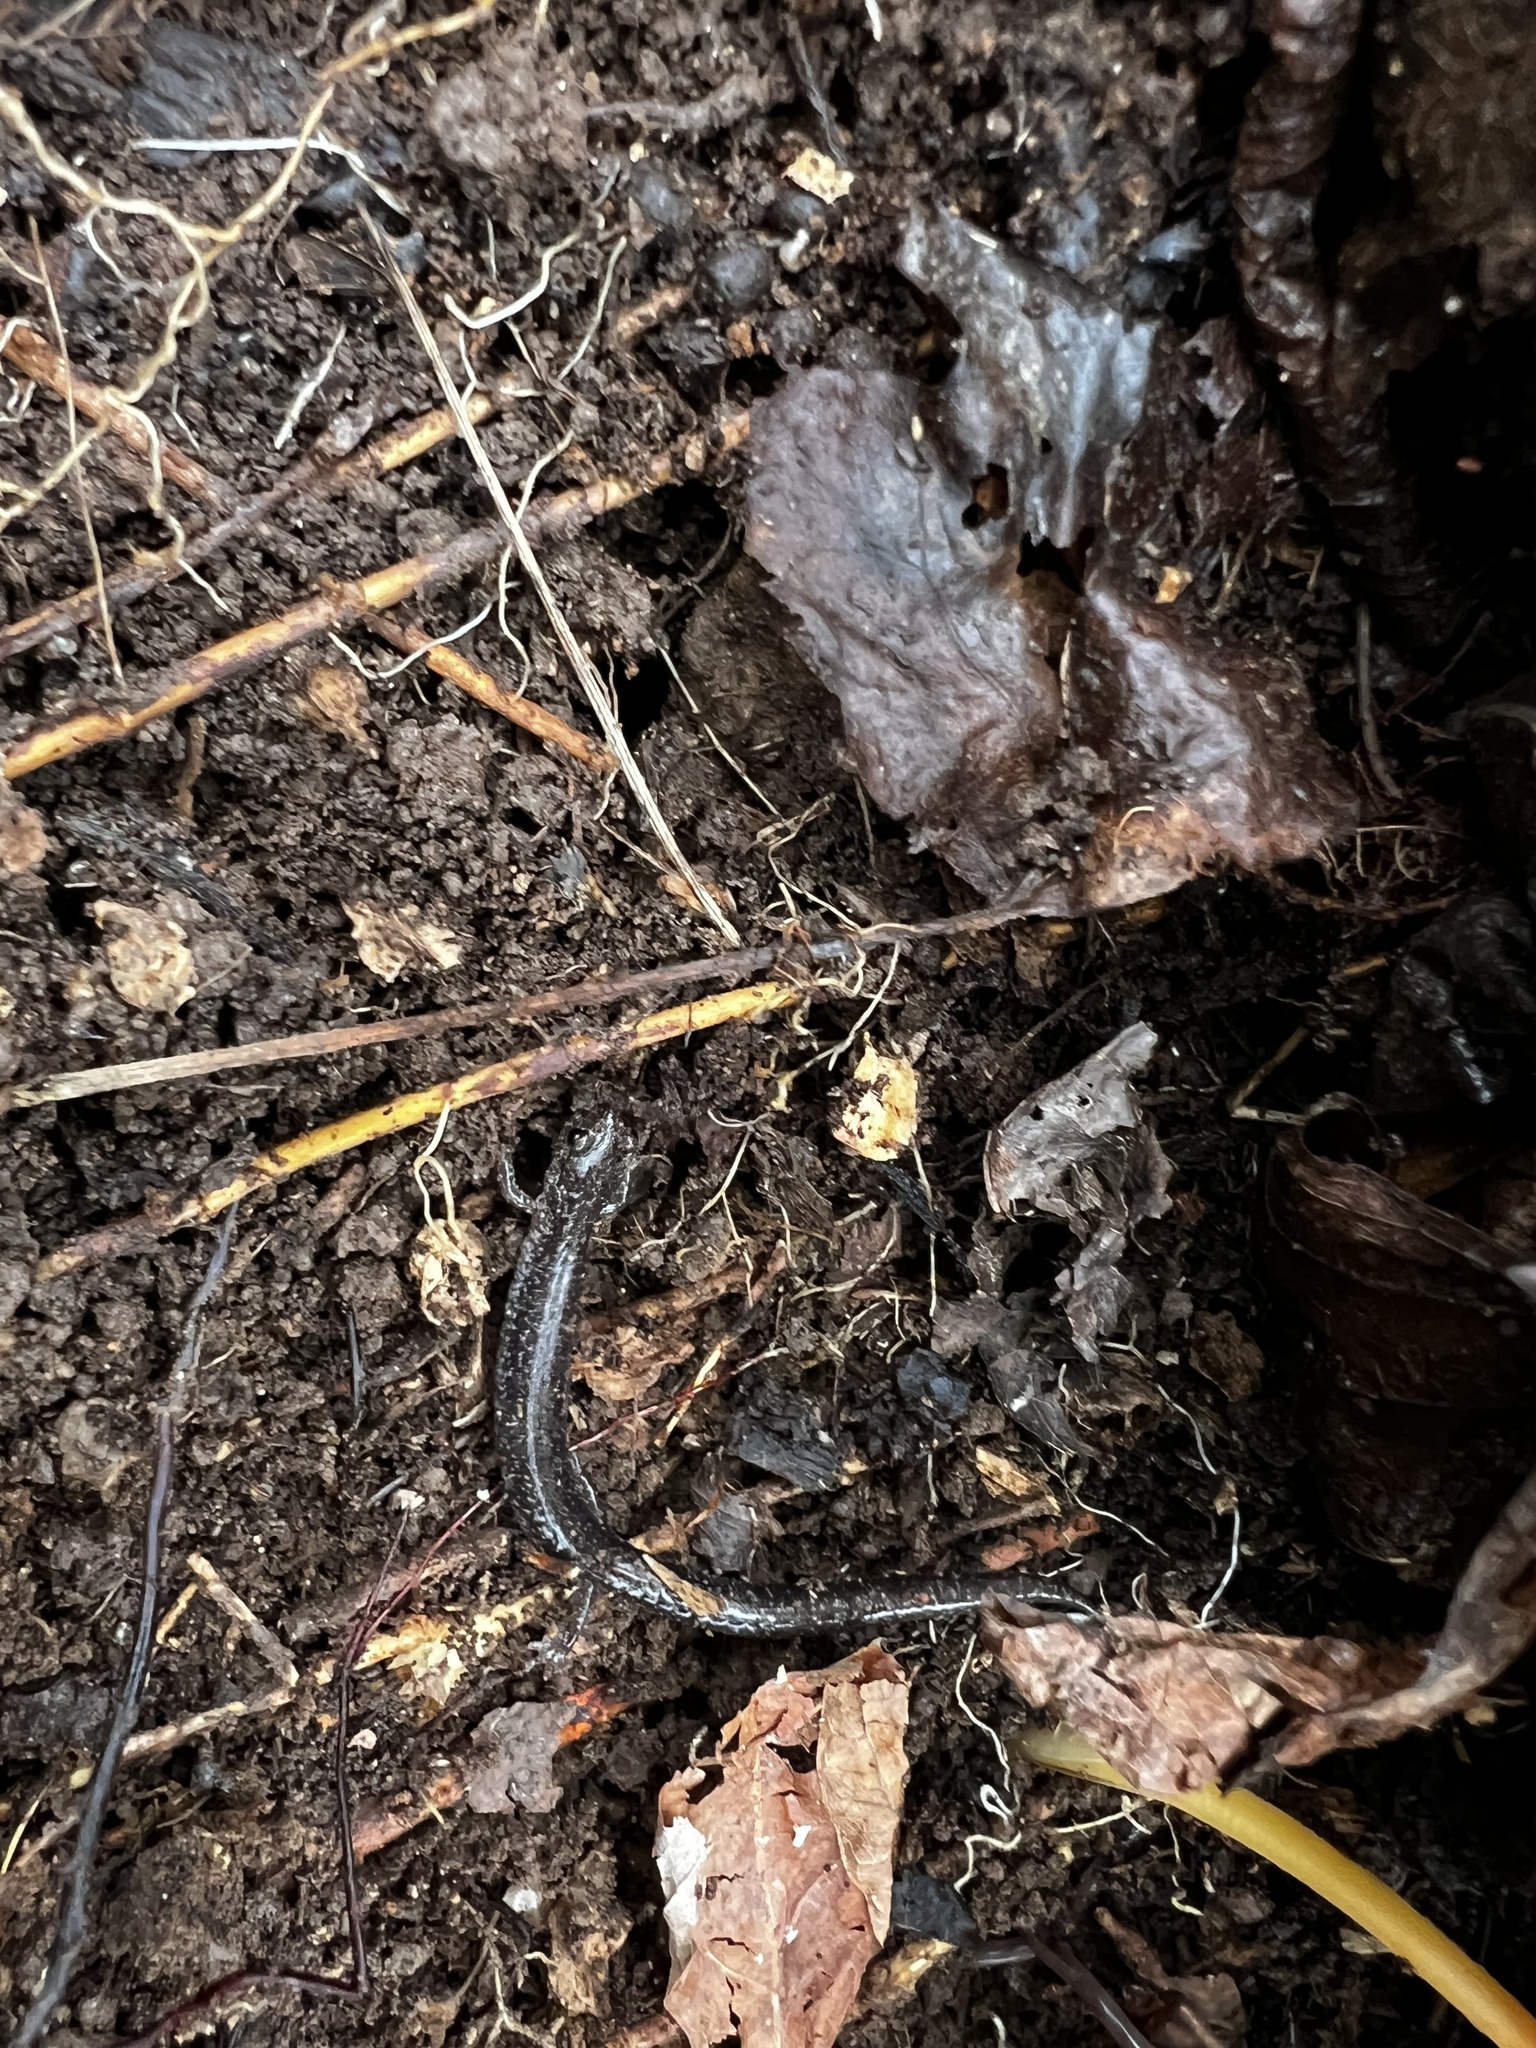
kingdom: Animalia
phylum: Chordata
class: Amphibia
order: Caudata
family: Plethodontidae
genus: Plethodon
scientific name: Plethodon cinereus
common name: Redback salamander
